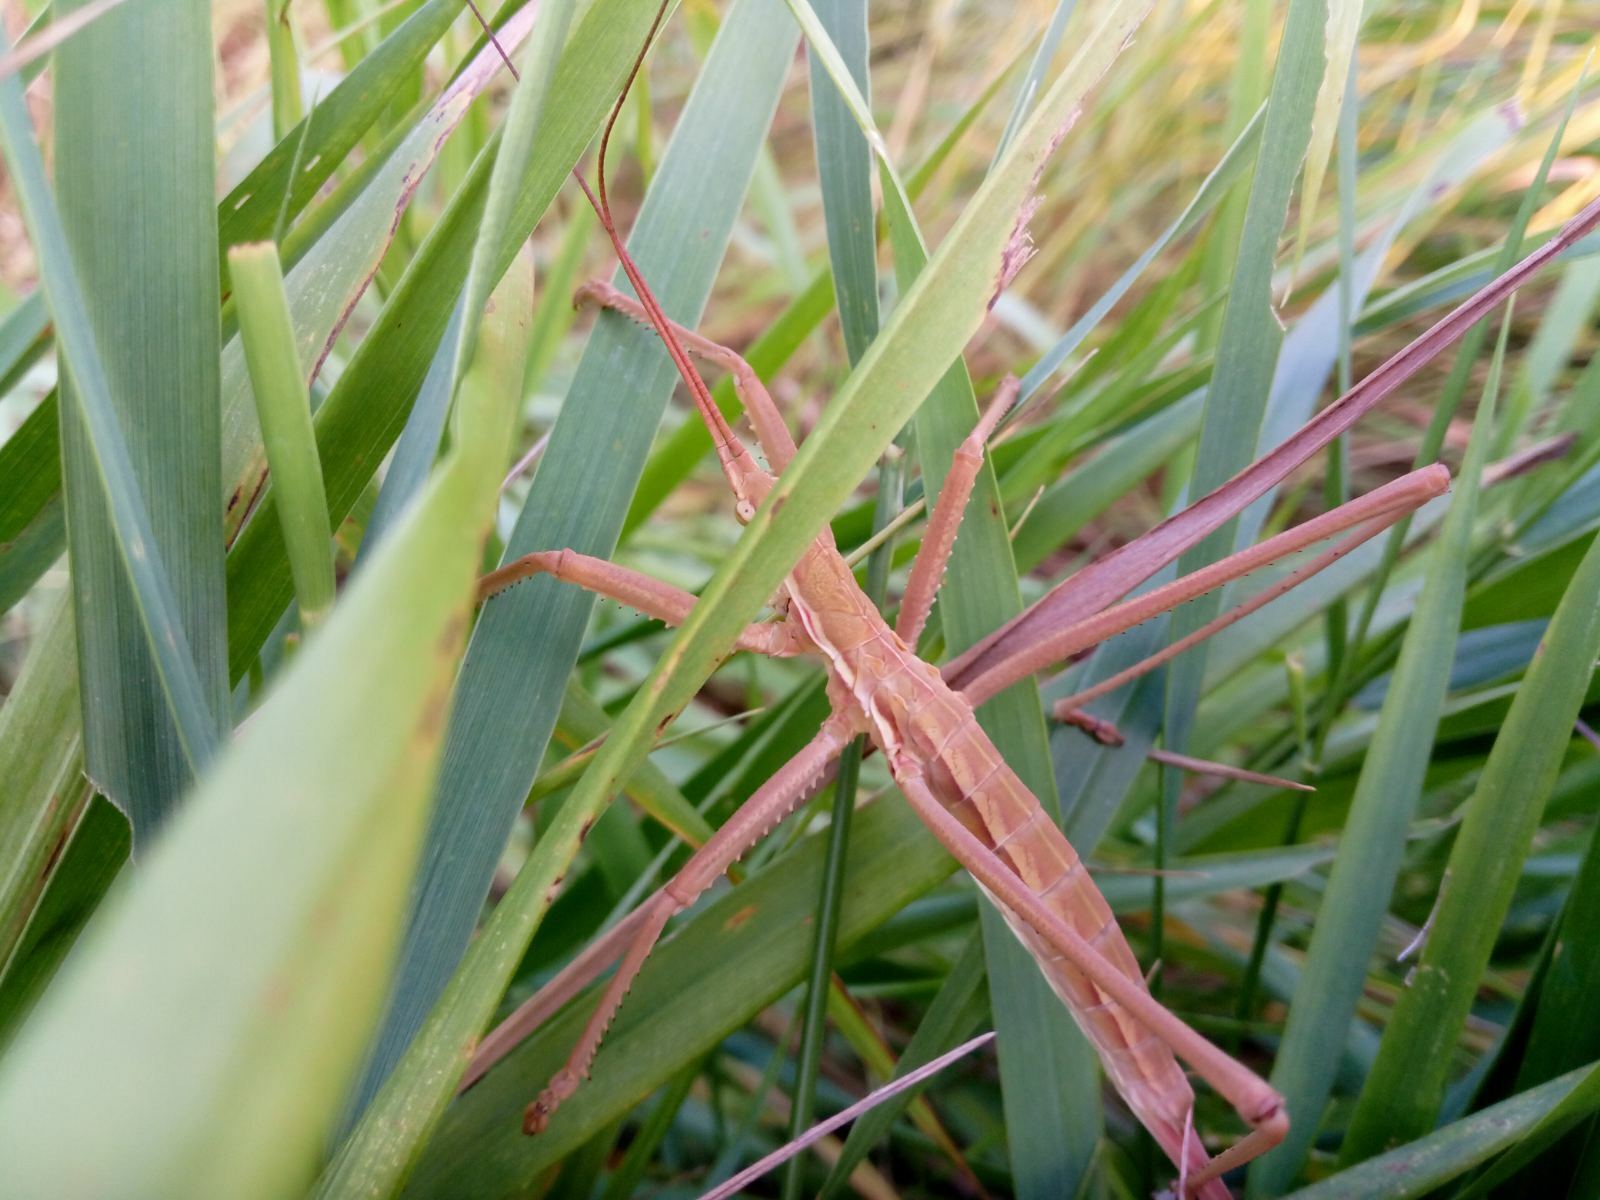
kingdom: Animalia
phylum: Arthropoda
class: Insecta
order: Orthoptera
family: Tettigoniidae
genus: Saga
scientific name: Saga pedo
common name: Common predatory bush-cricket
